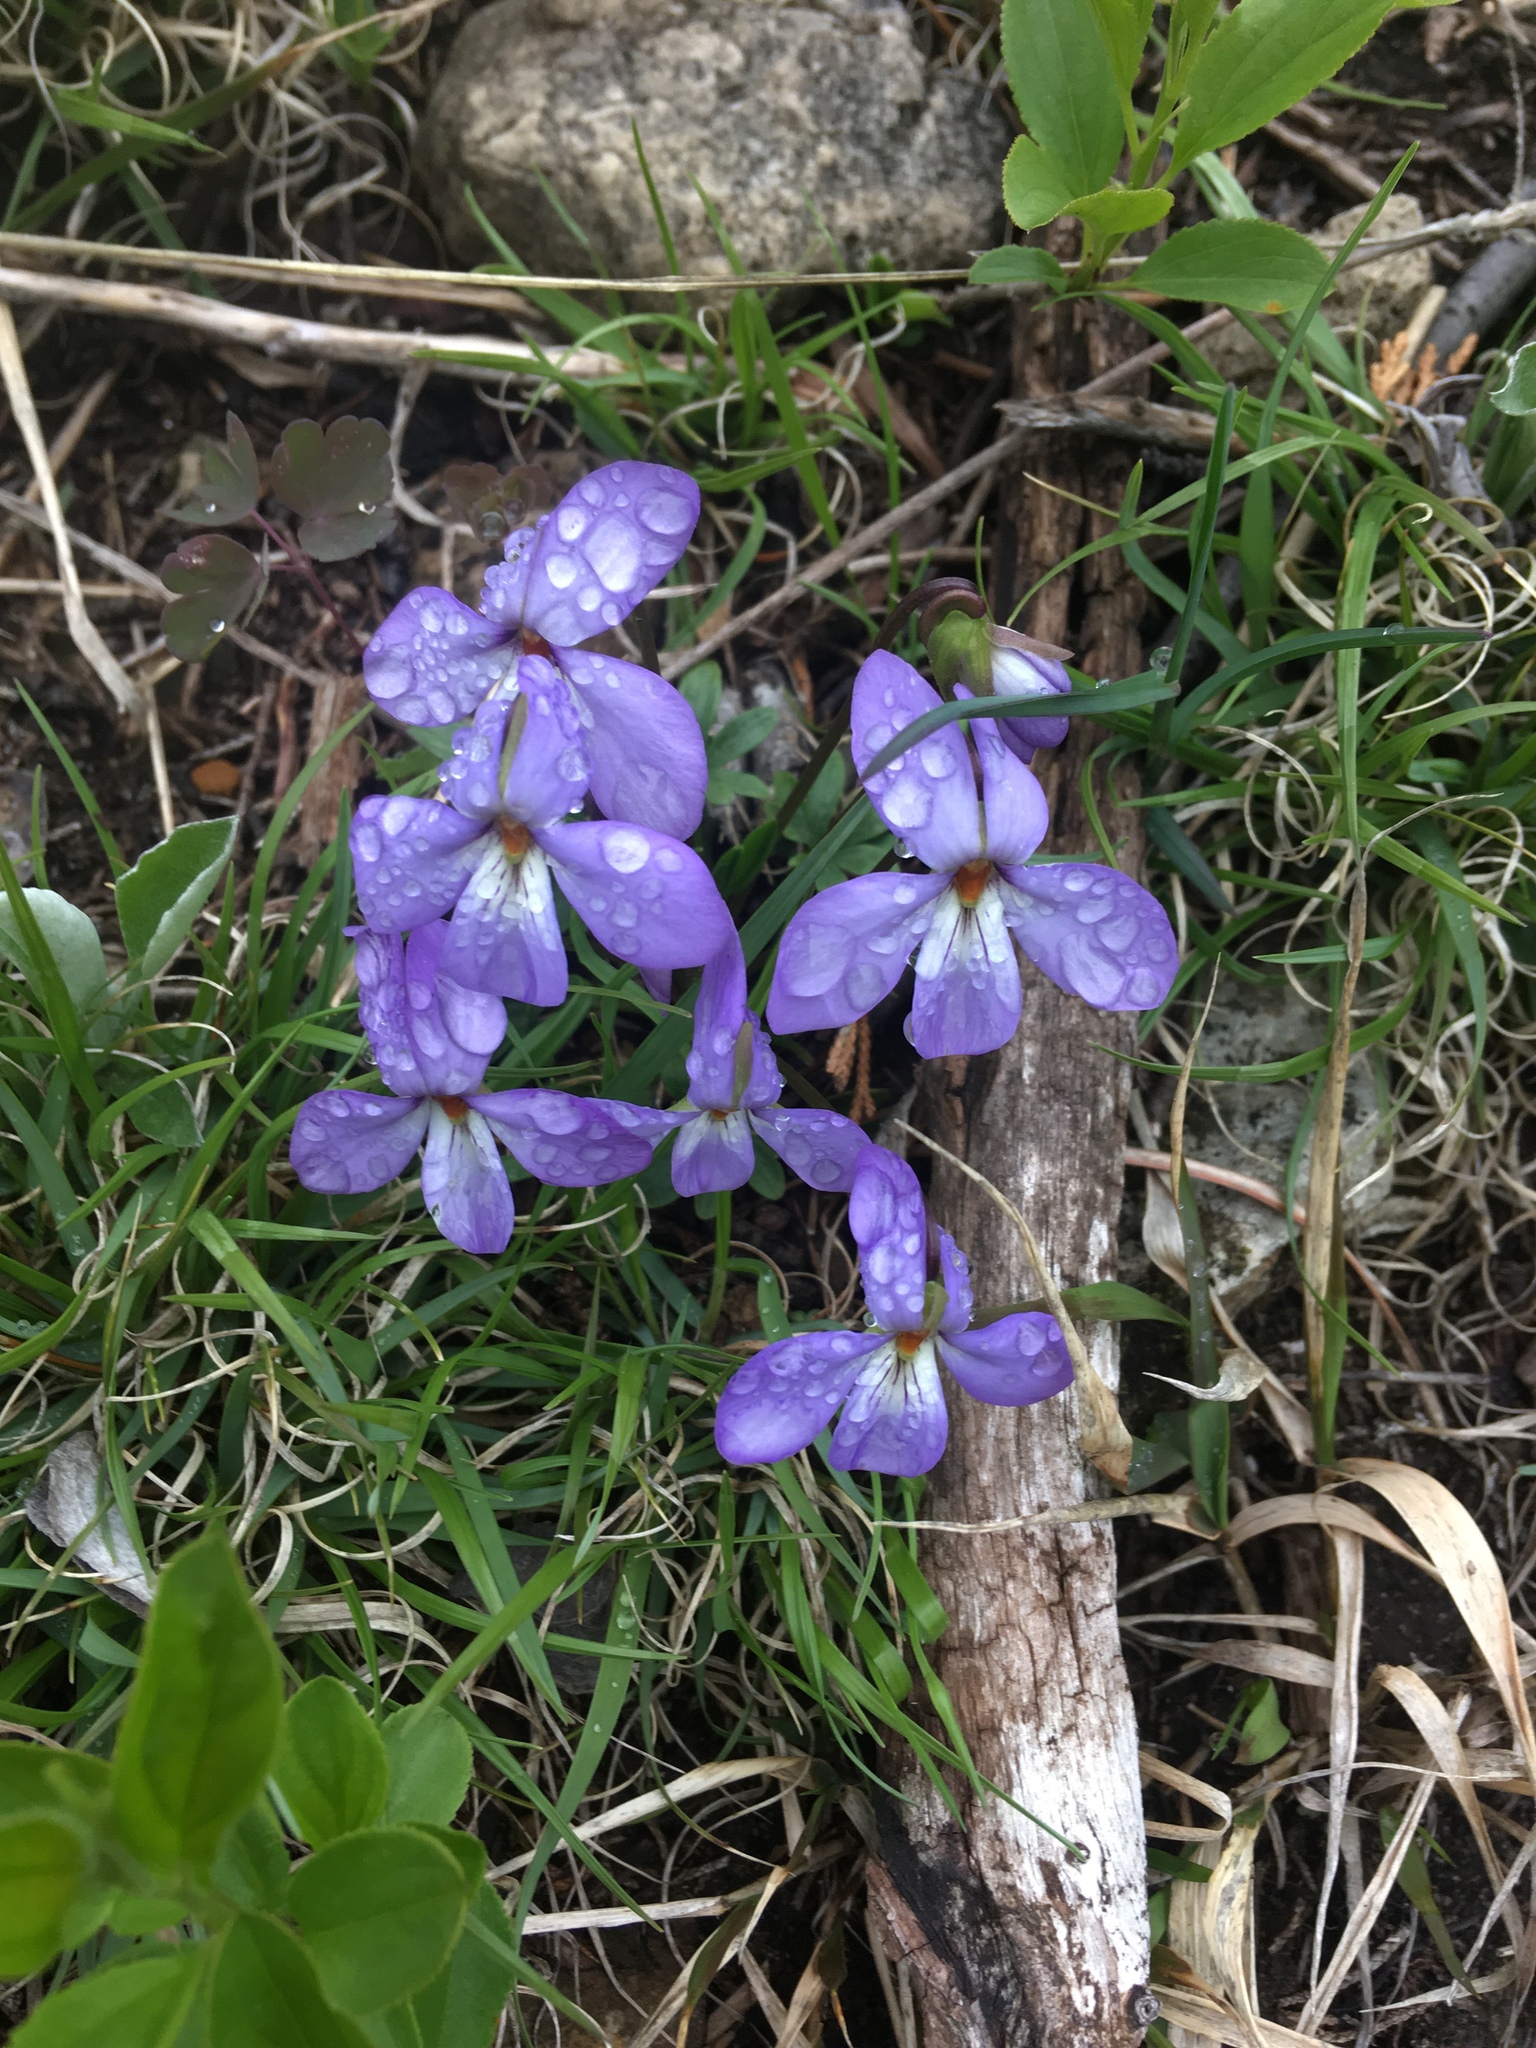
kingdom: Plantae
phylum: Tracheophyta
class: Magnoliopsida
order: Malpighiales
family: Violaceae
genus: Viola
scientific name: Viola pedata
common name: Pansy violet
